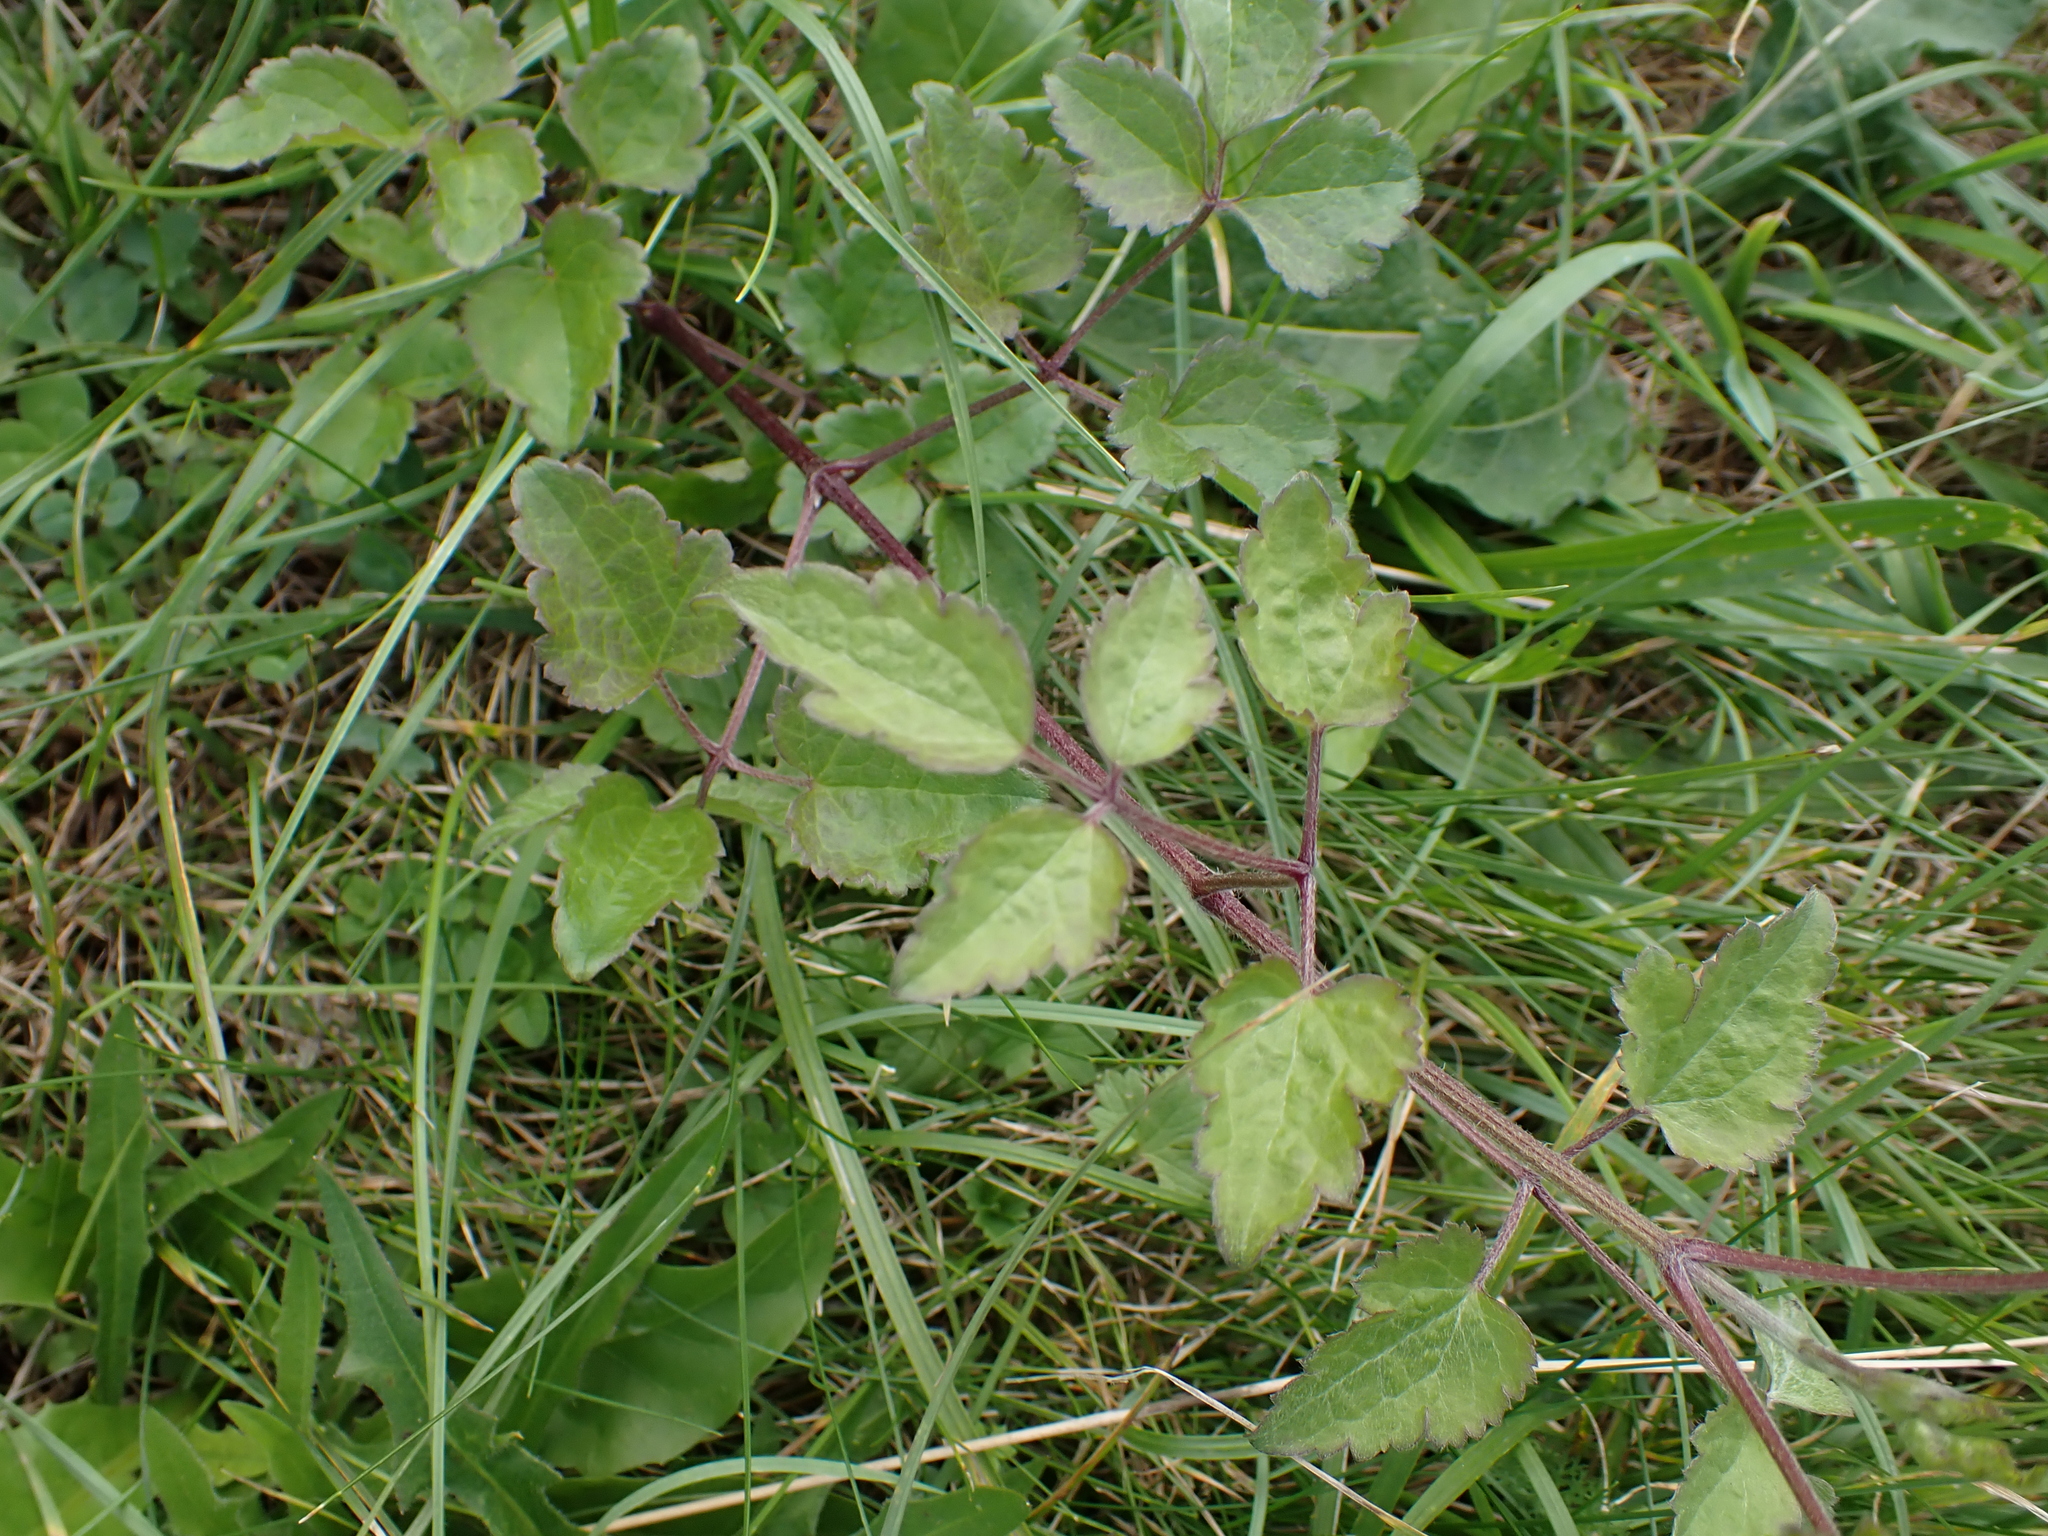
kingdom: Plantae
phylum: Tracheophyta
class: Magnoliopsida
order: Ranunculales
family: Ranunculaceae
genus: Clematis
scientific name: Clematis vitalba
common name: Evergreen clematis
